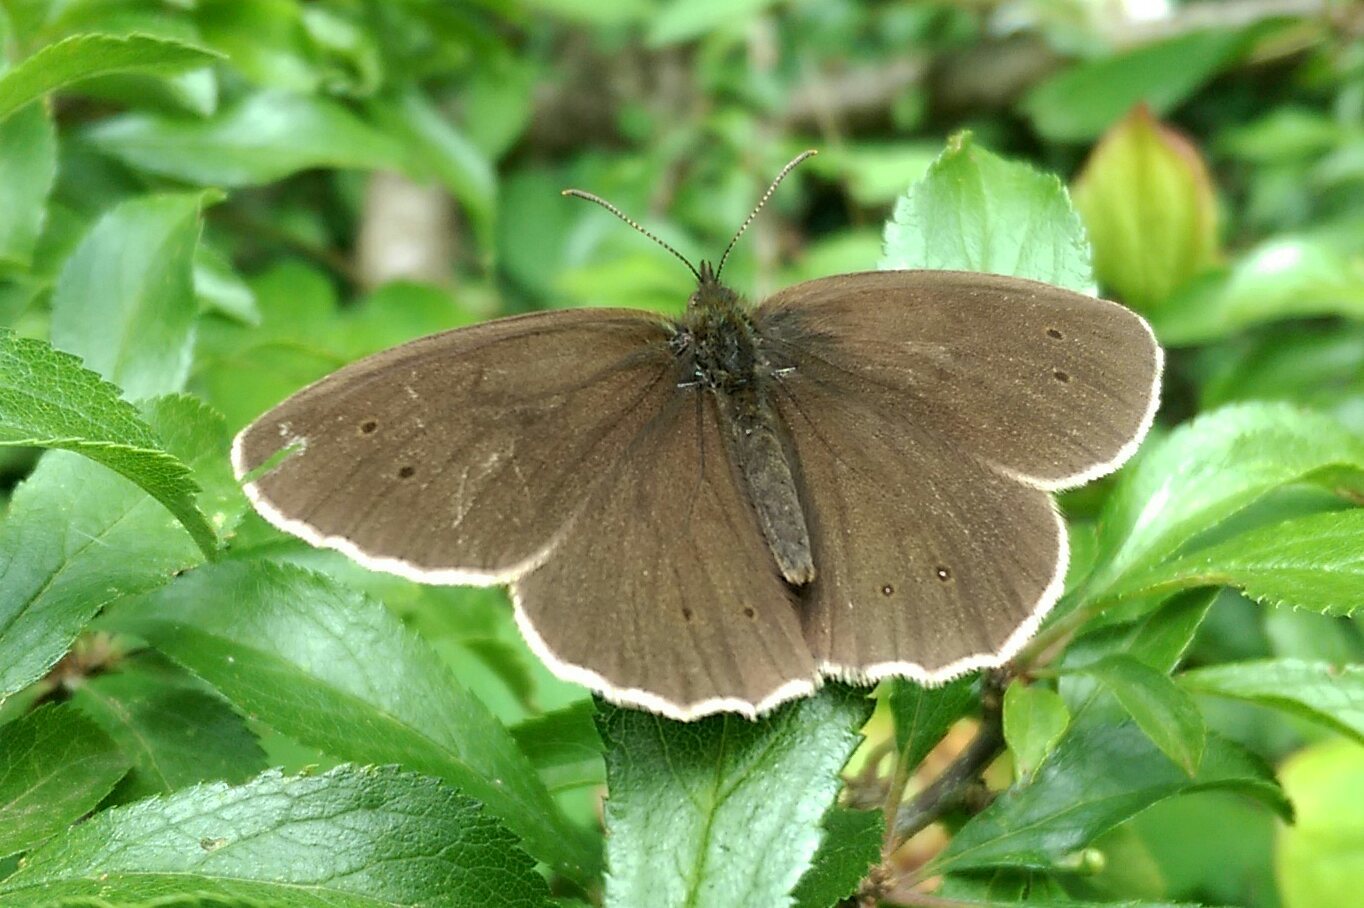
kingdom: Animalia
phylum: Arthropoda
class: Insecta
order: Lepidoptera
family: Nymphalidae
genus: Aphantopus
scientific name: Aphantopus hyperantus
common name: Ringlet
